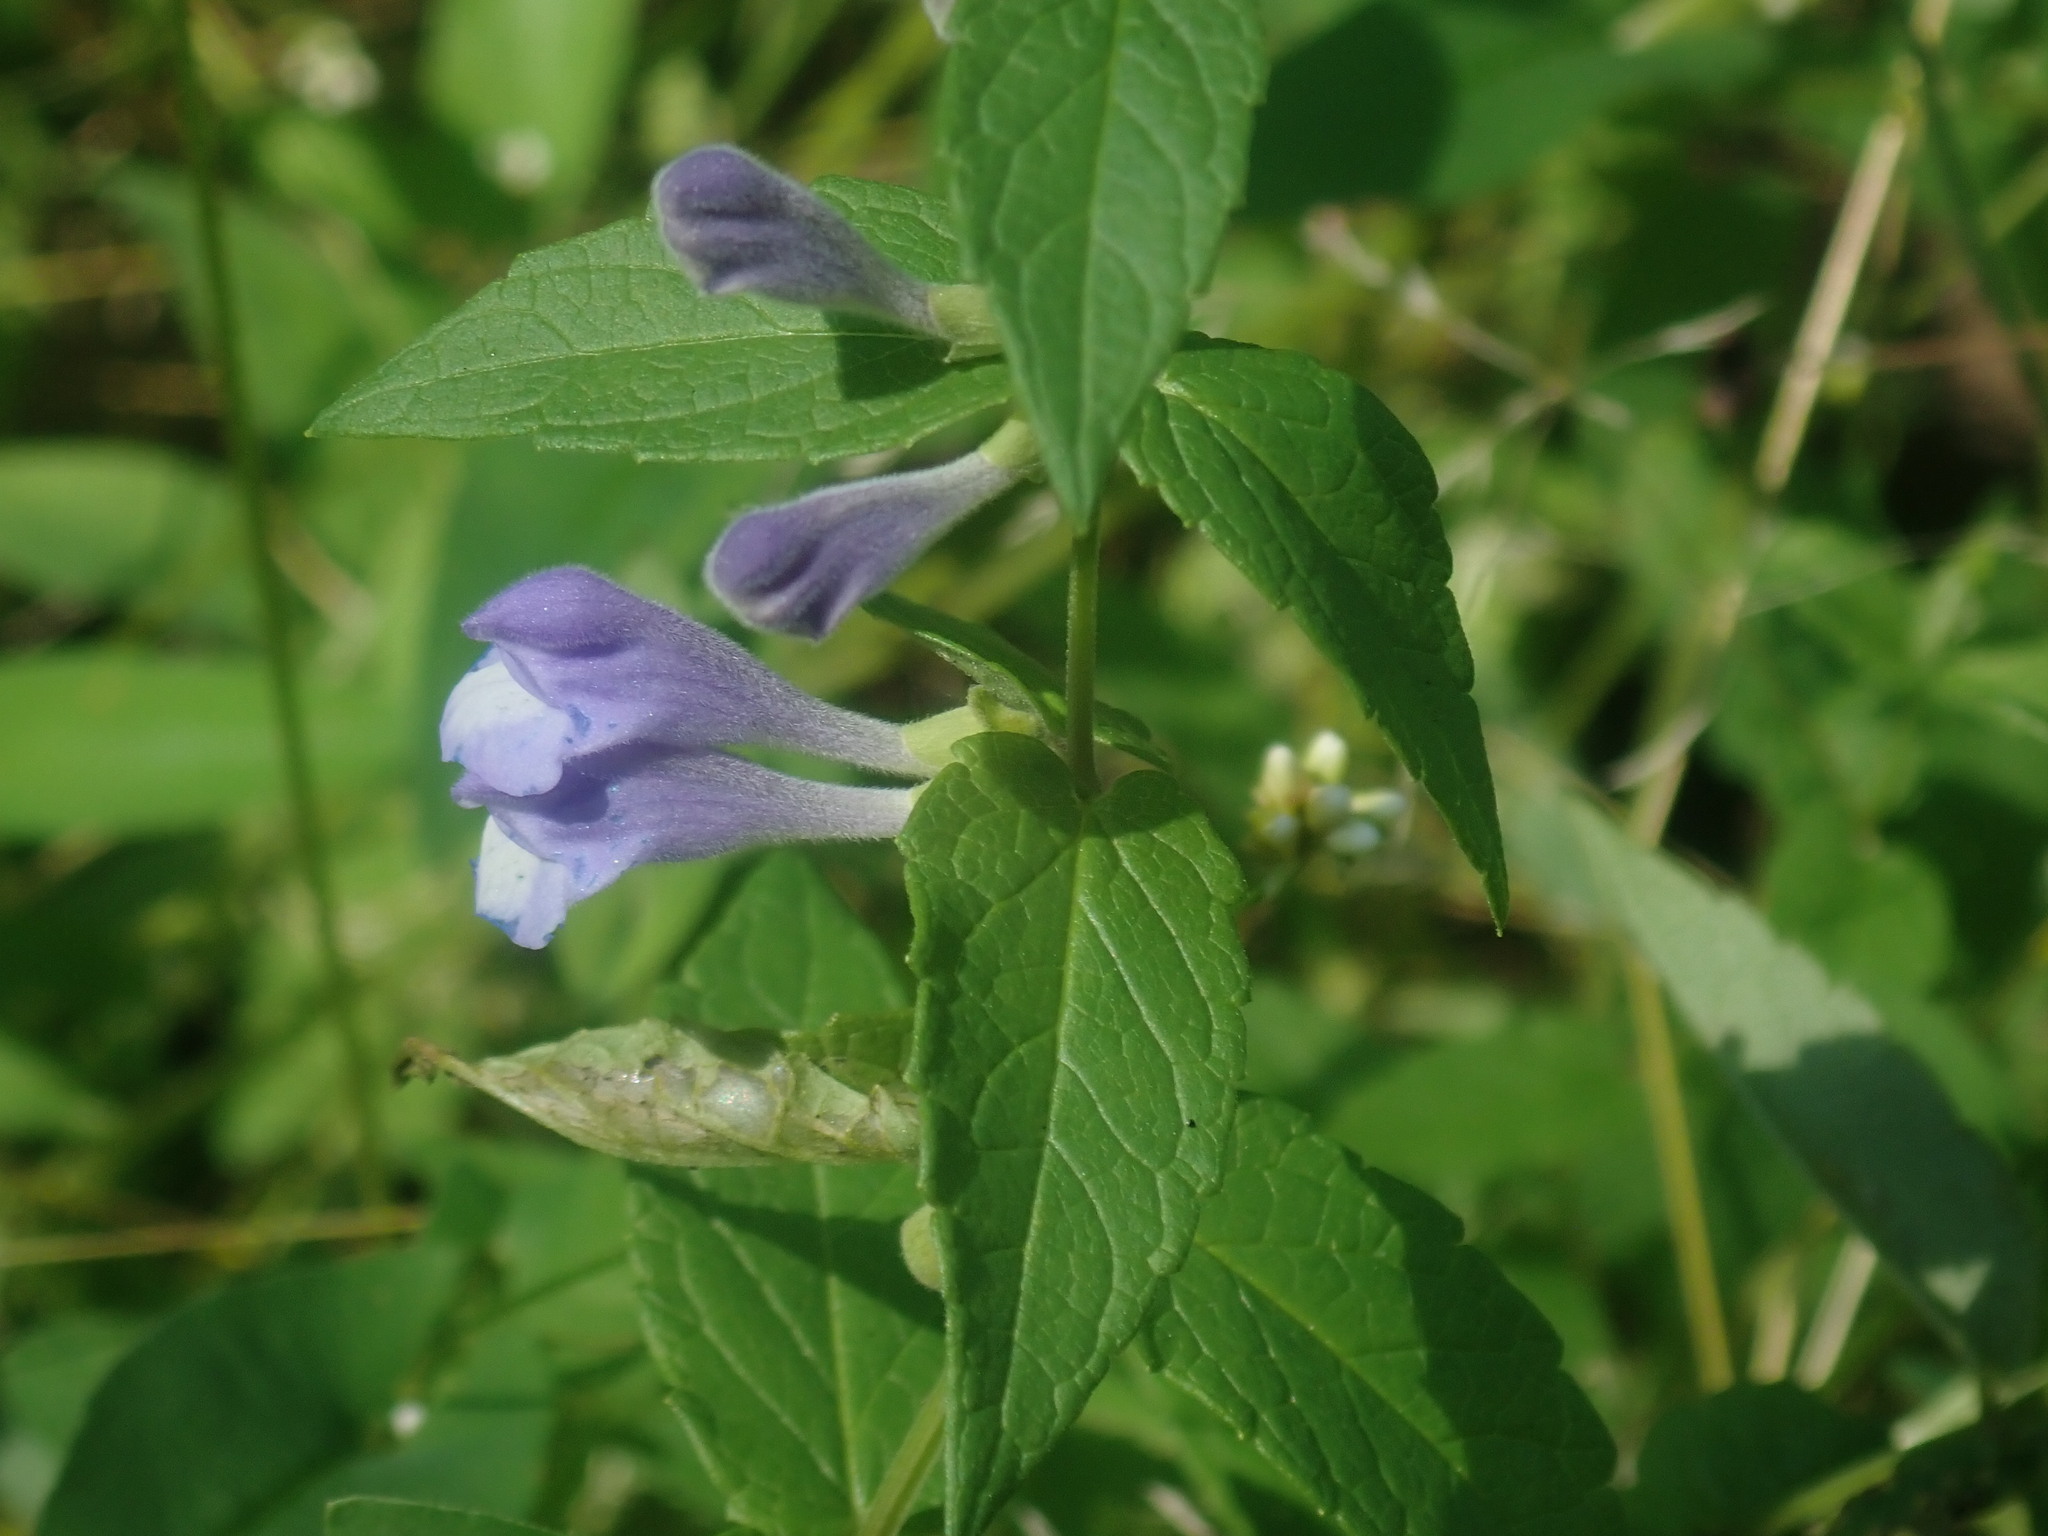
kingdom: Plantae
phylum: Tracheophyta
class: Magnoliopsida
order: Lamiales
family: Lamiaceae
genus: Scutellaria
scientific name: Scutellaria galericulata
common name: Skullcap
